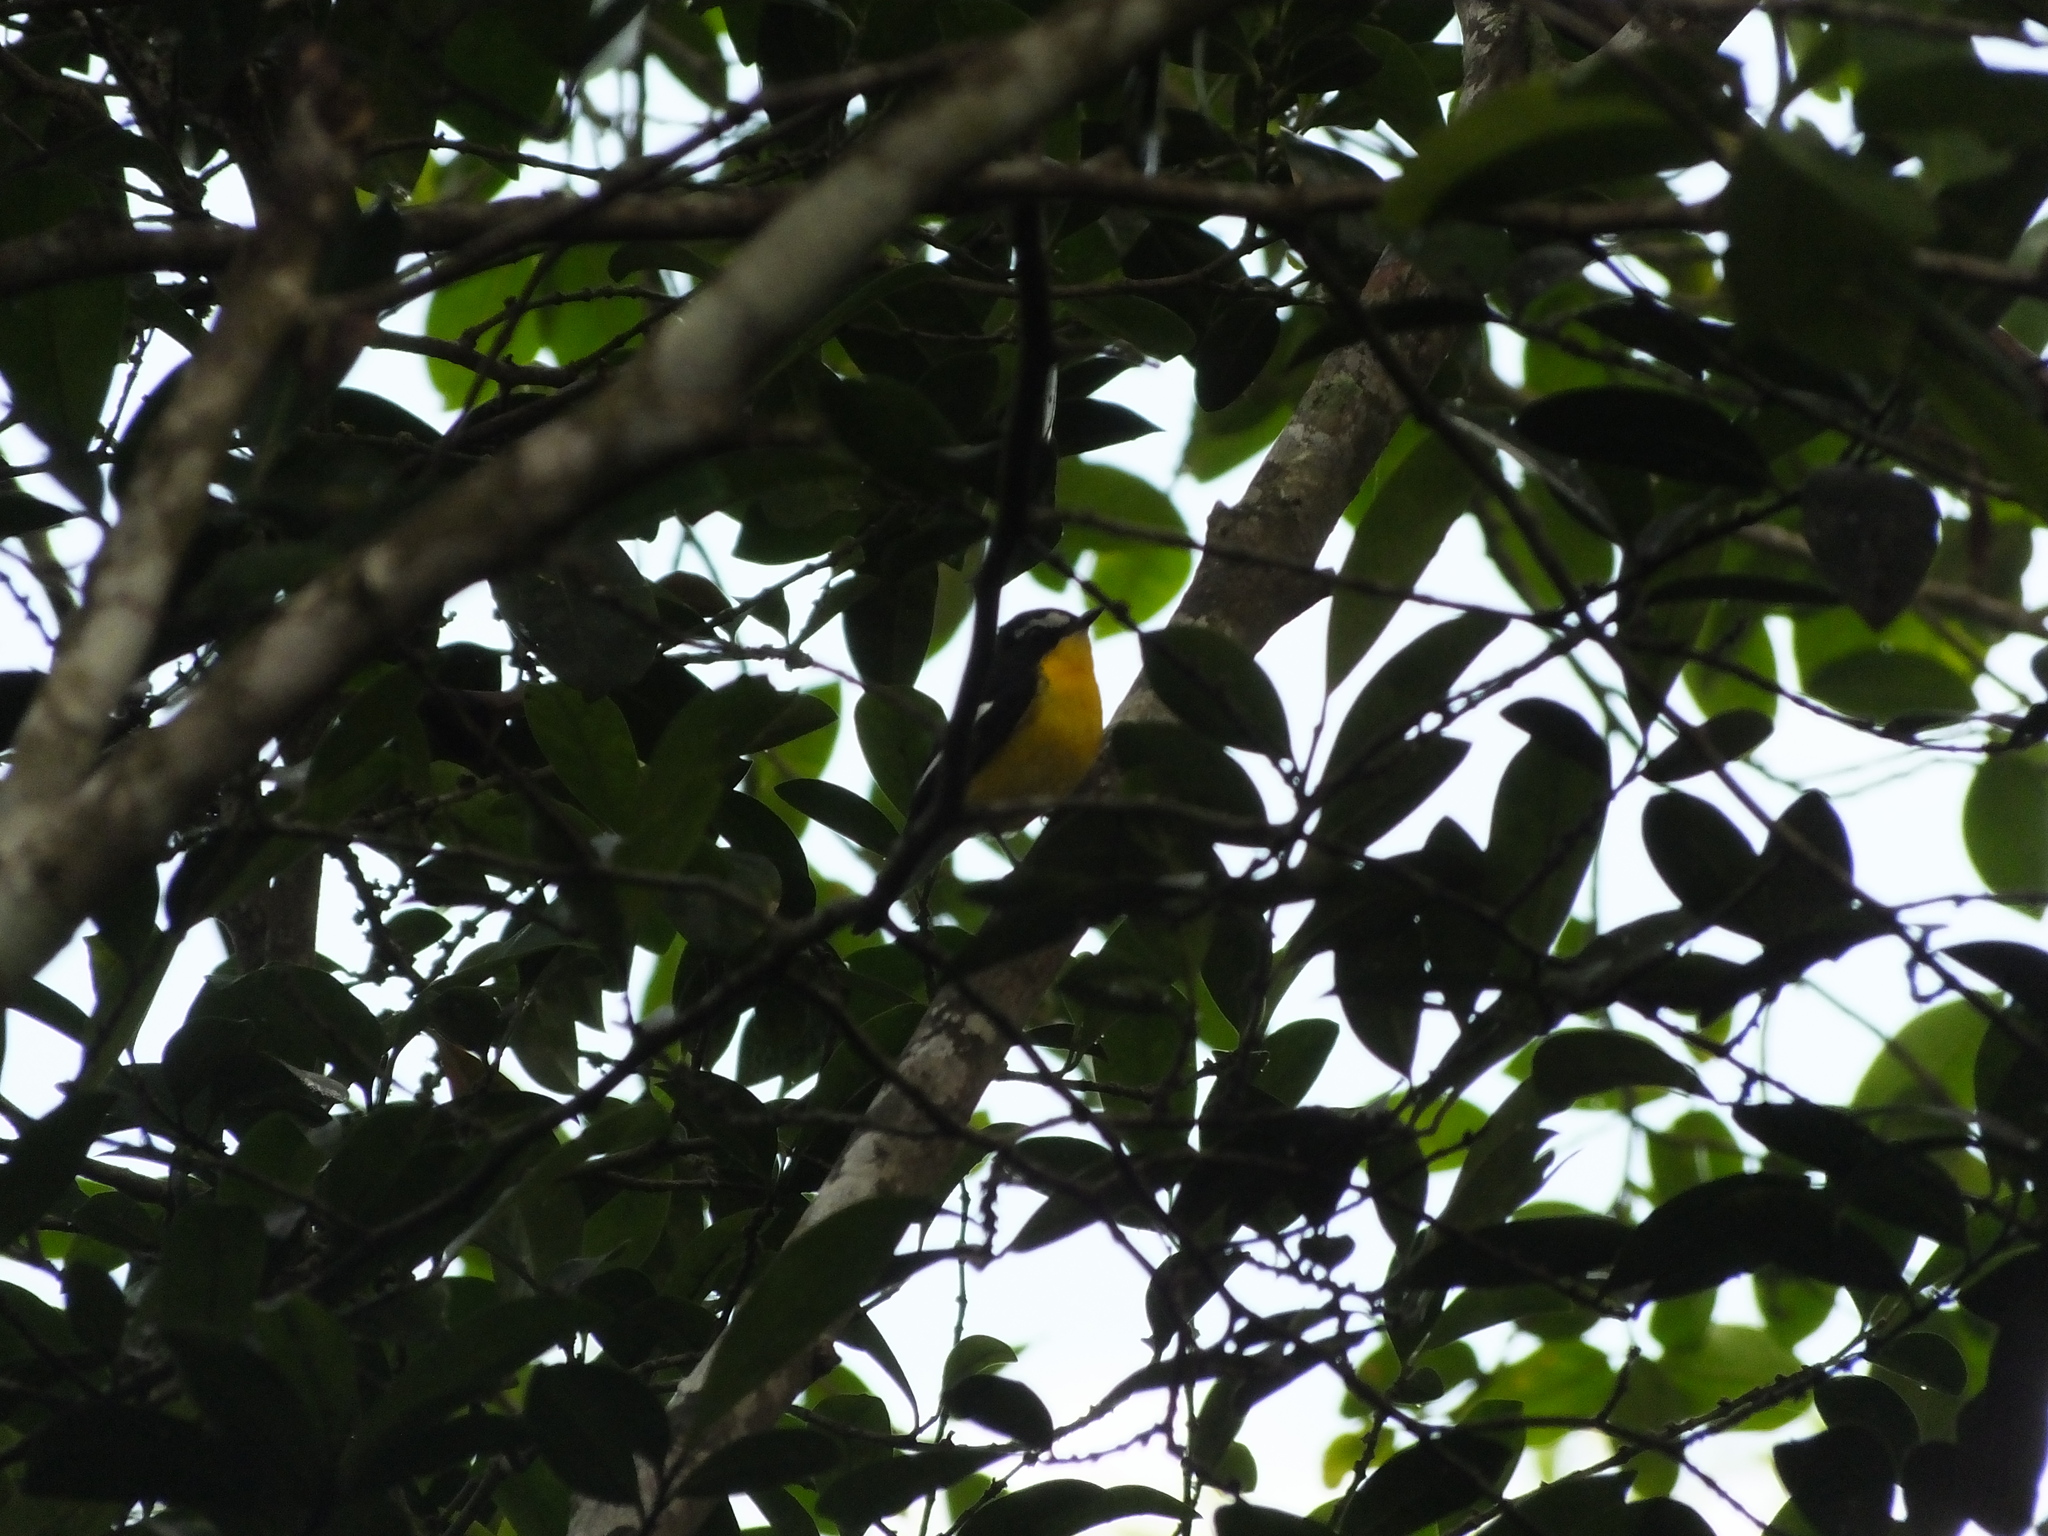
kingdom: Animalia
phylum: Chordata
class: Aves
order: Passeriformes
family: Muscicapidae
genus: Ficedula
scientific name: Ficedula zanthopygia
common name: Yellow-rumped flycatcher
